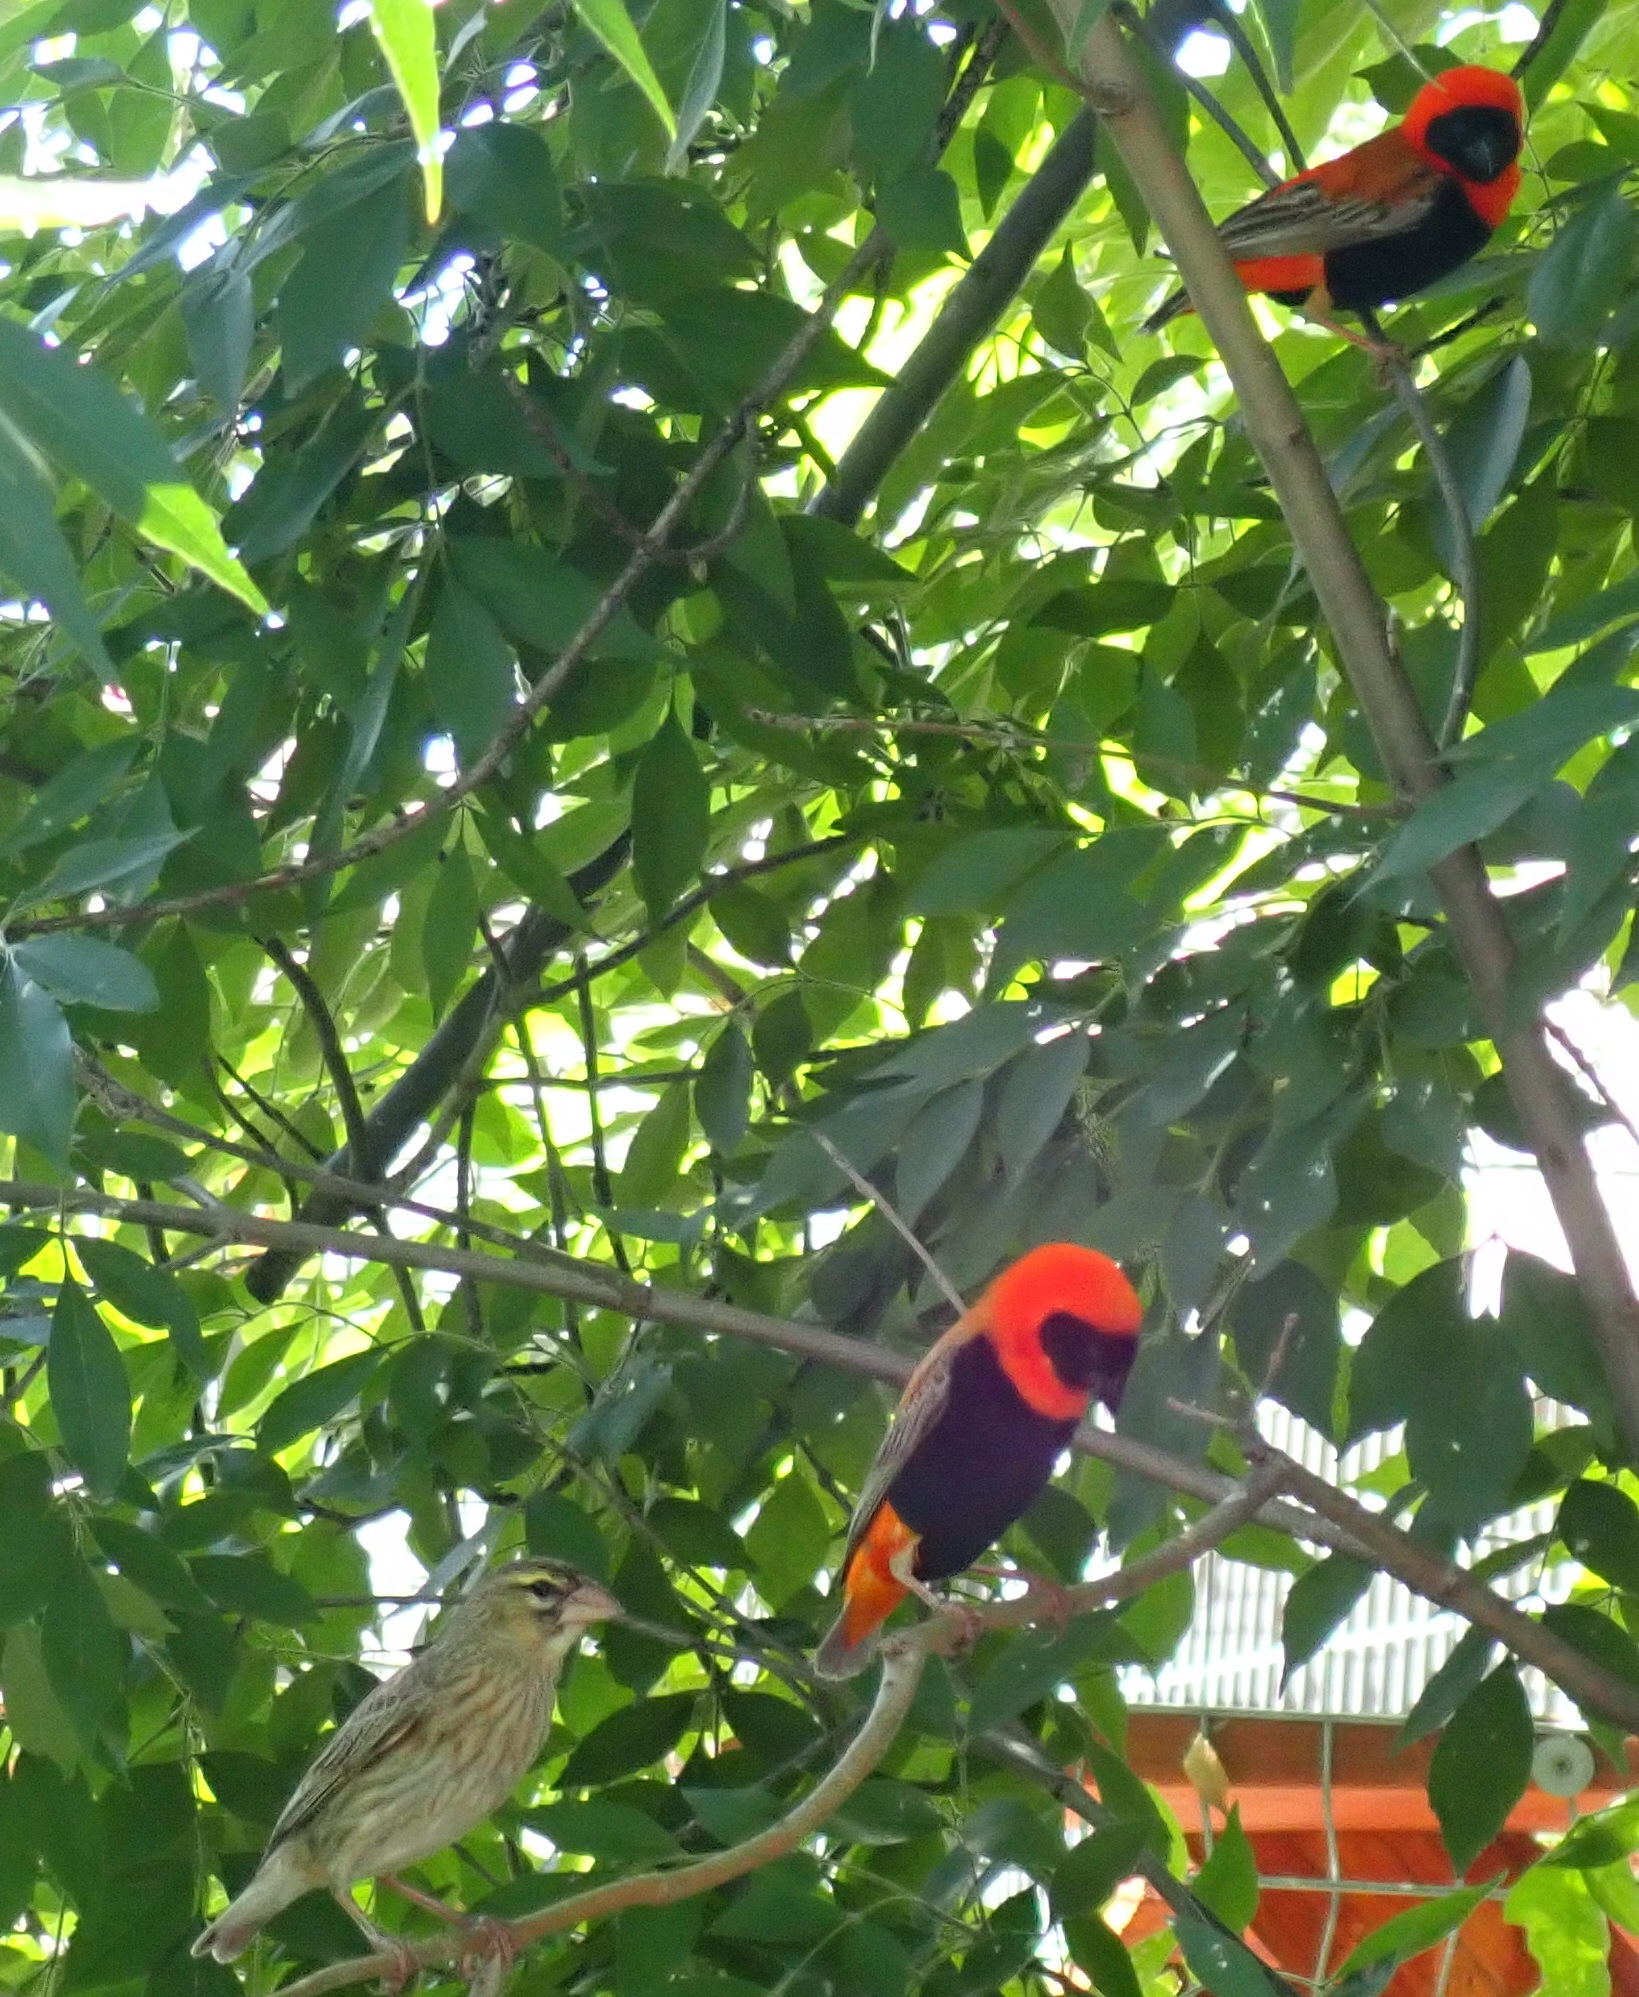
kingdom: Animalia
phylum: Chordata
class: Aves
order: Passeriformes
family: Ploceidae
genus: Euplectes
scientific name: Euplectes orix
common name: Southern red bishop
